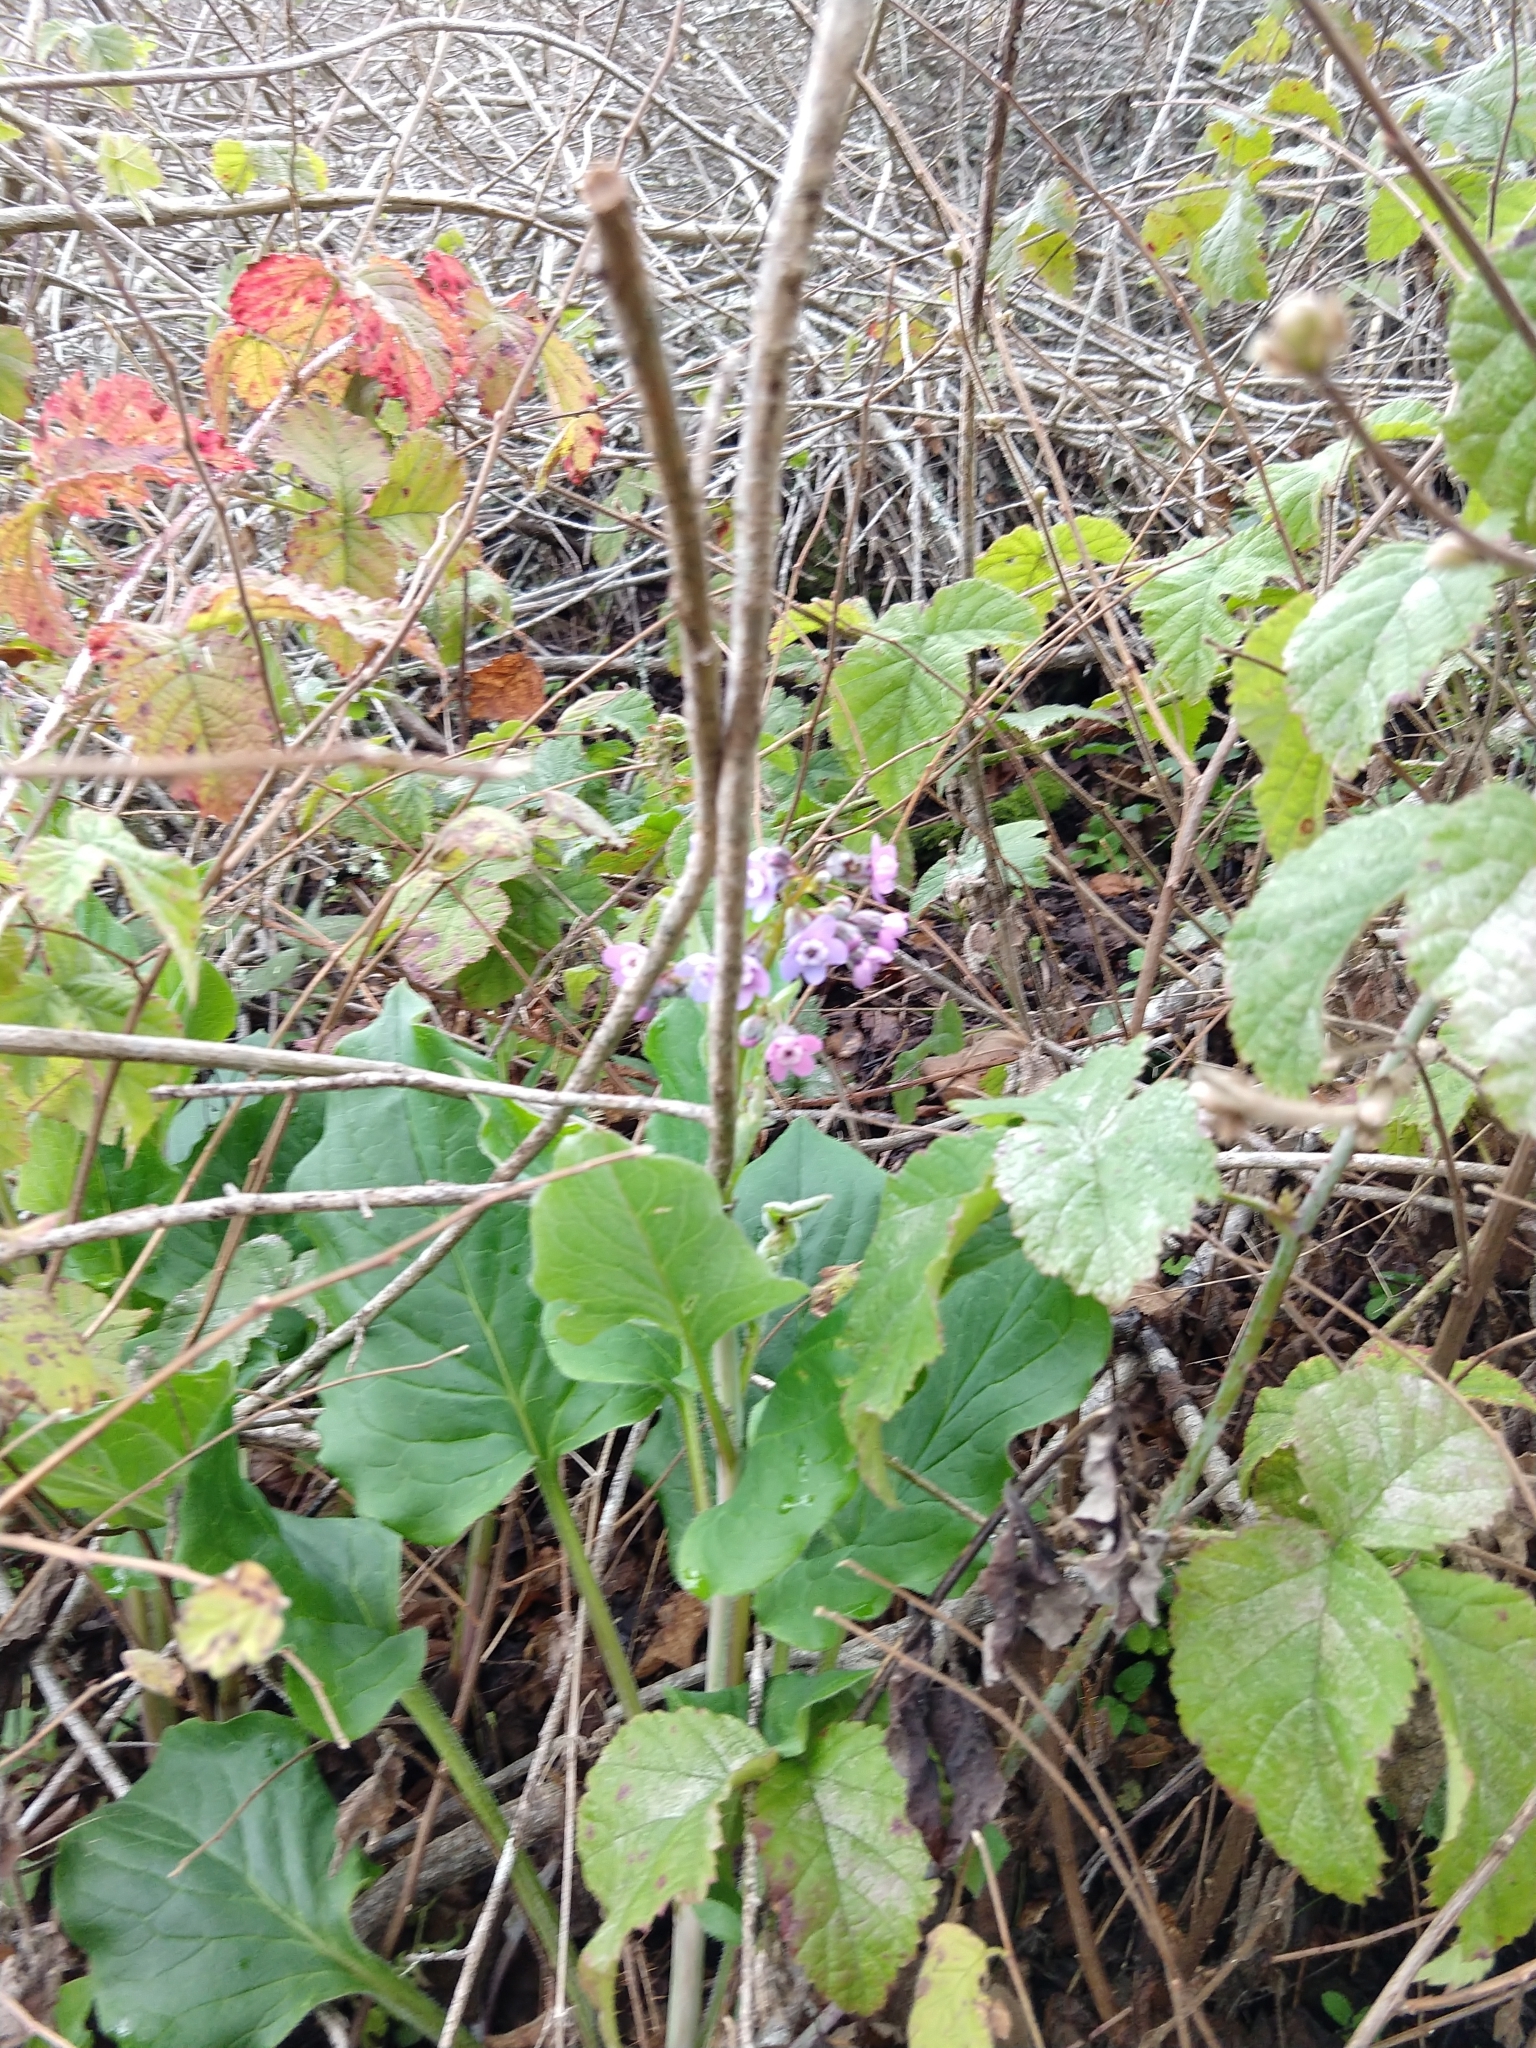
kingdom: Plantae
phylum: Tracheophyta
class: Magnoliopsida
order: Boraginales
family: Boraginaceae
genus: Adelinia
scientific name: Adelinia grande
